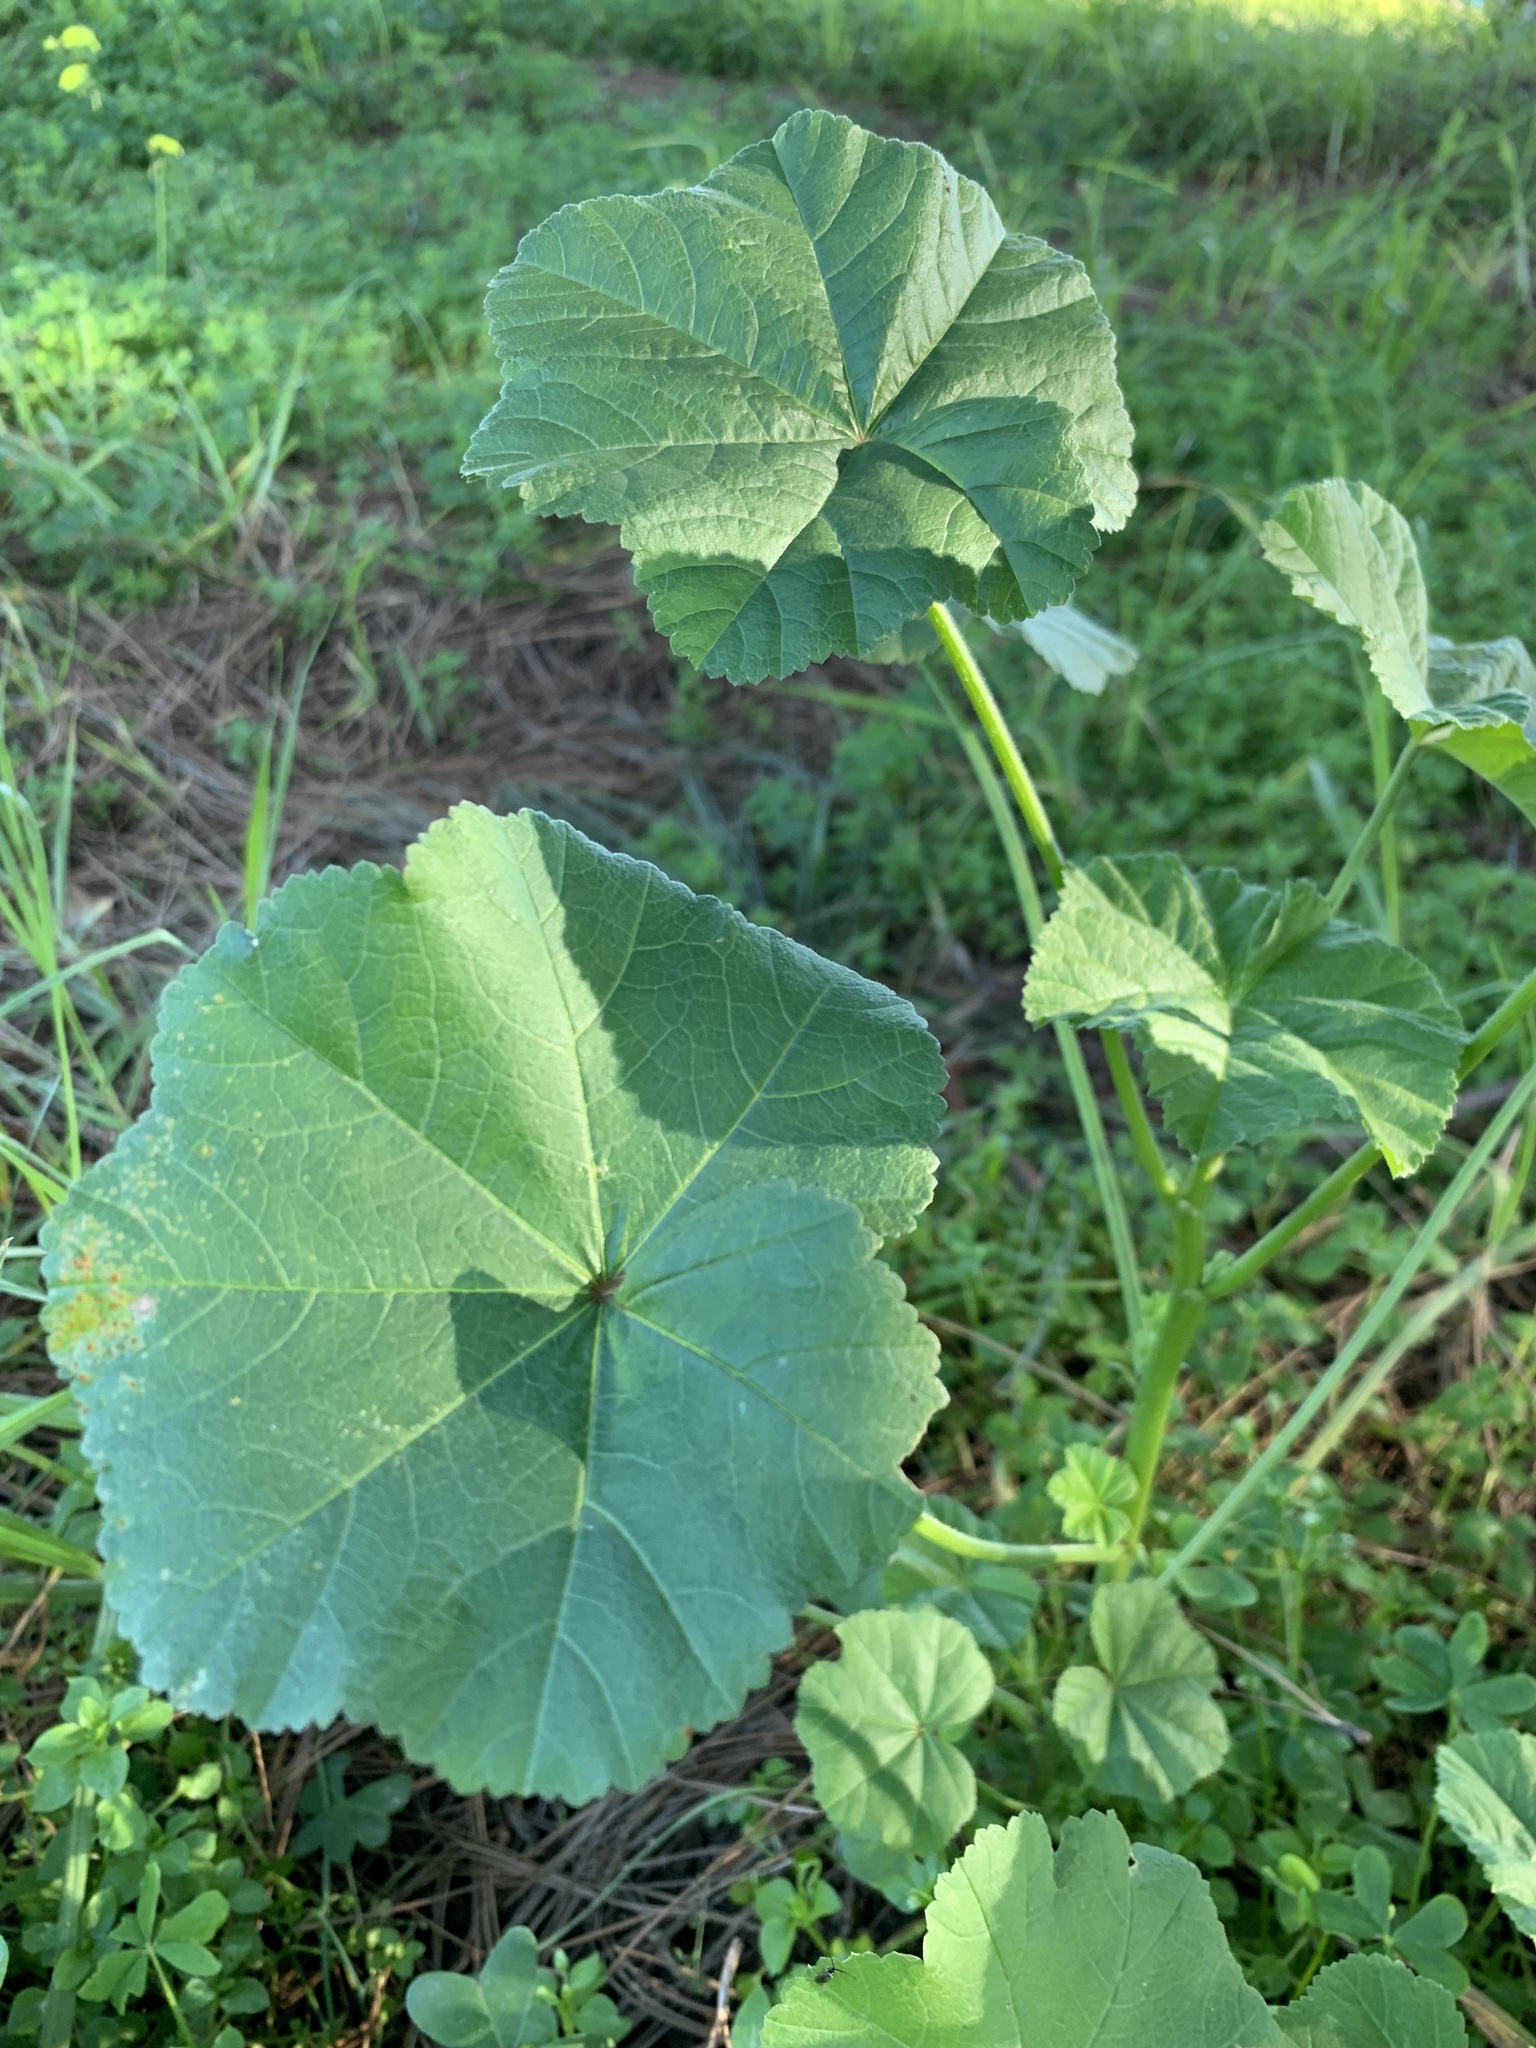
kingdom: Plantae
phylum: Tracheophyta
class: Magnoliopsida
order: Malvales
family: Malvaceae
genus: Malva
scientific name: Malva parviflora
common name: Least mallow
